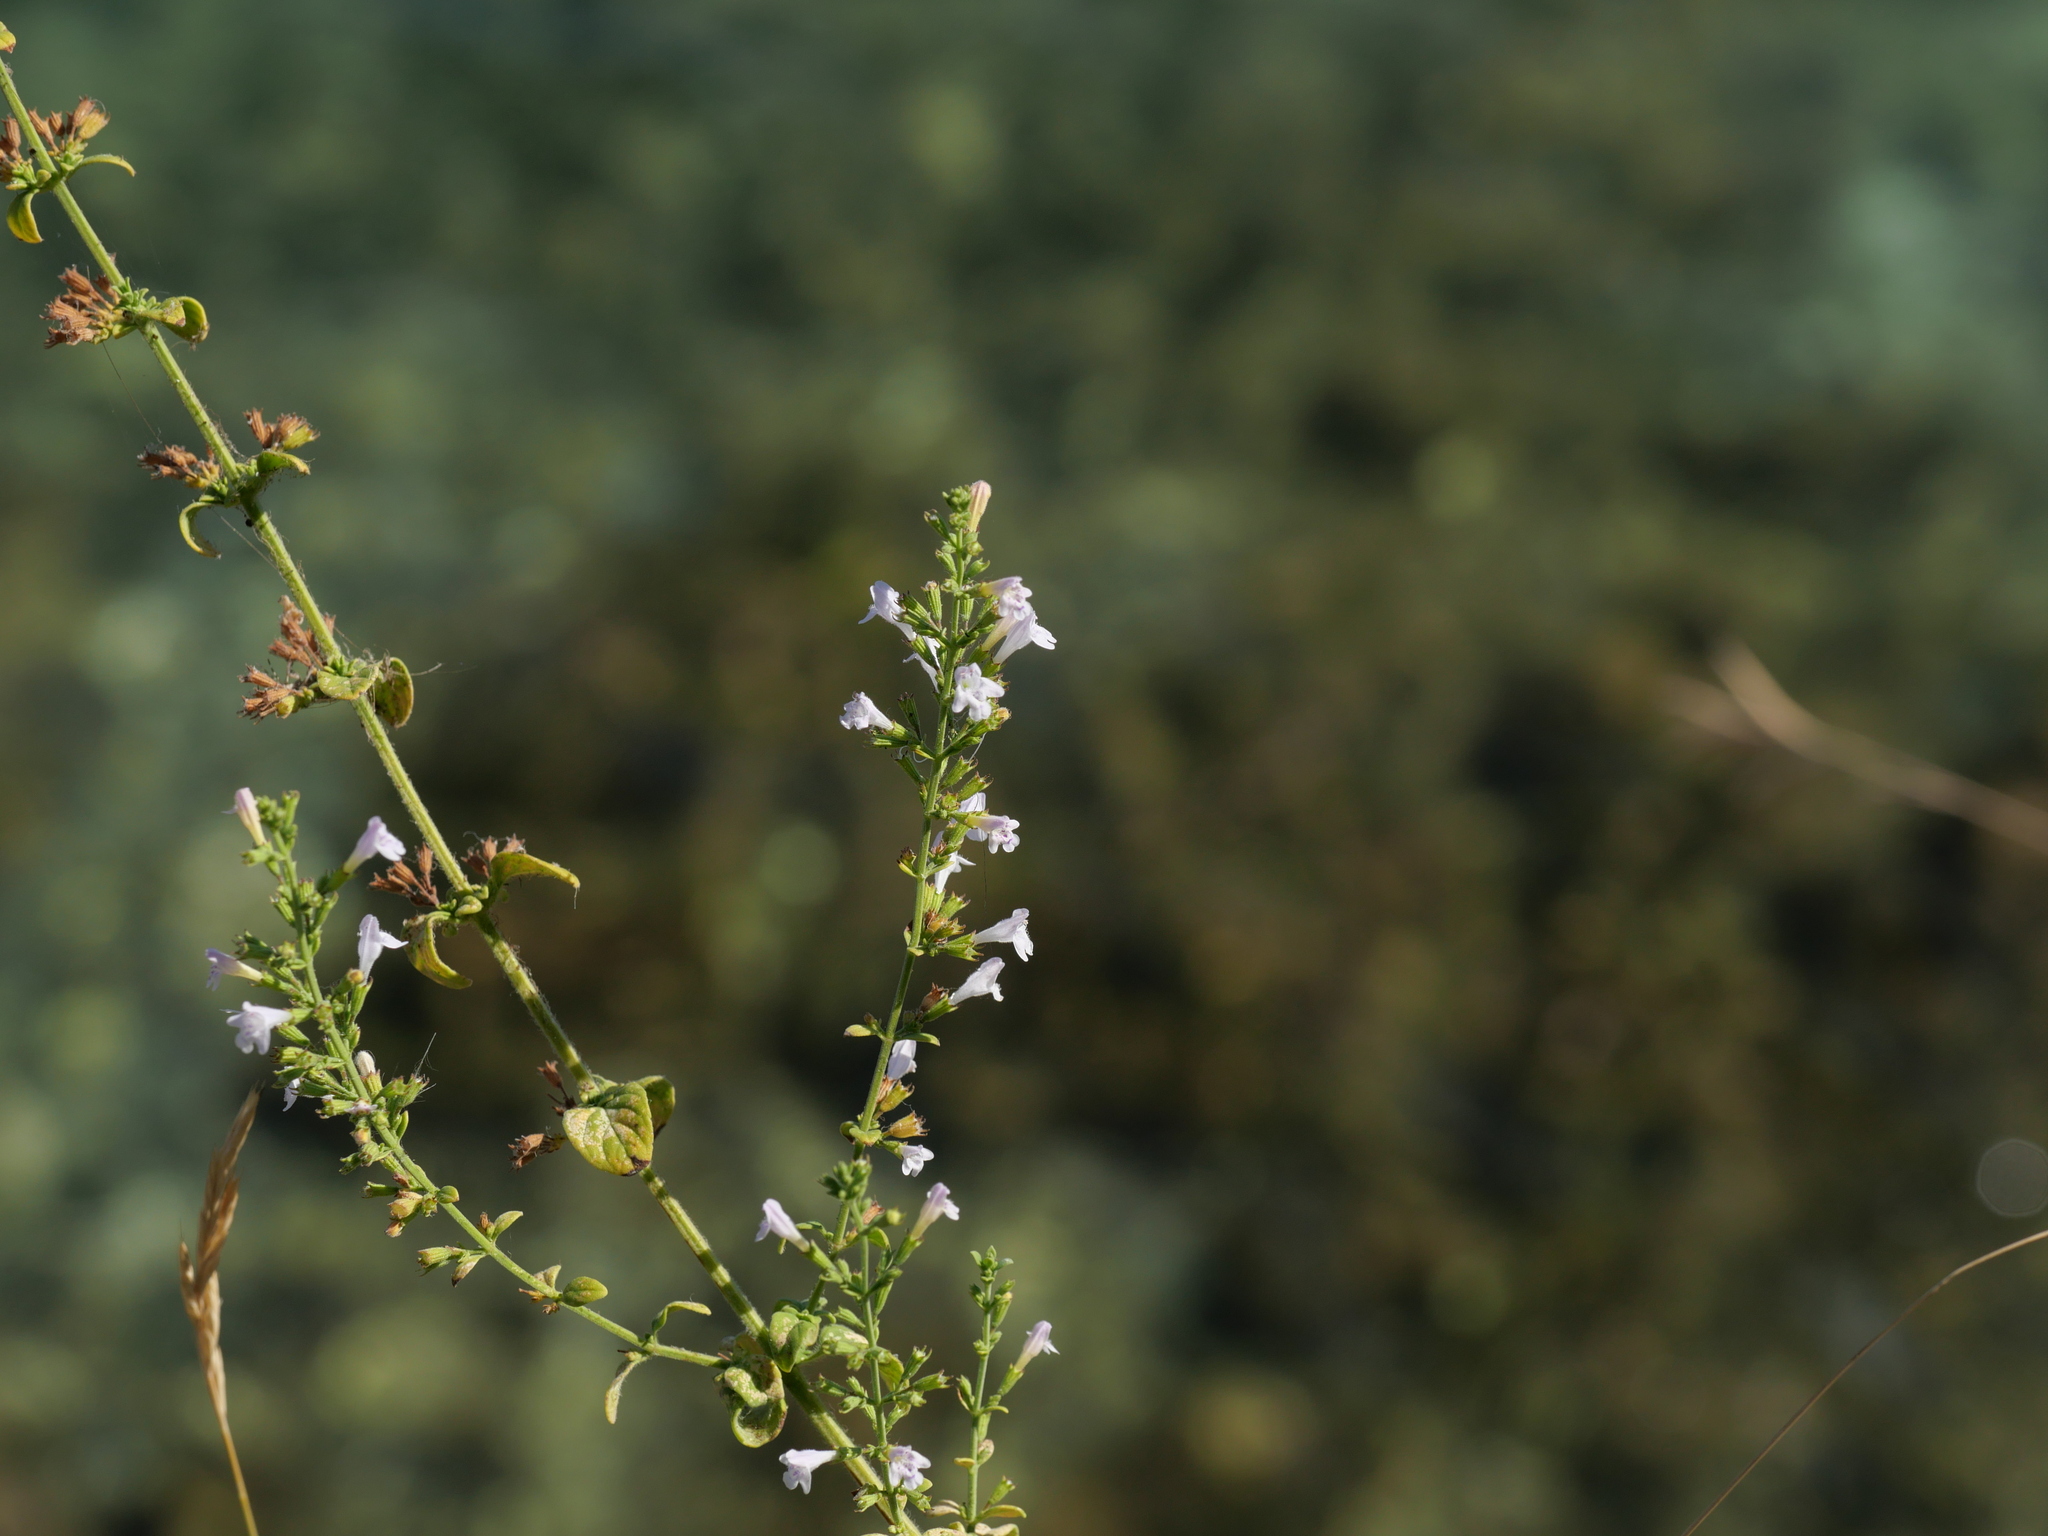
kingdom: Plantae
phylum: Tracheophyta
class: Magnoliopsida
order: Lamiales
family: Lamiaceae
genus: Clinopodium
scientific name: Clinopodium nepeta
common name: Lesser calamint
